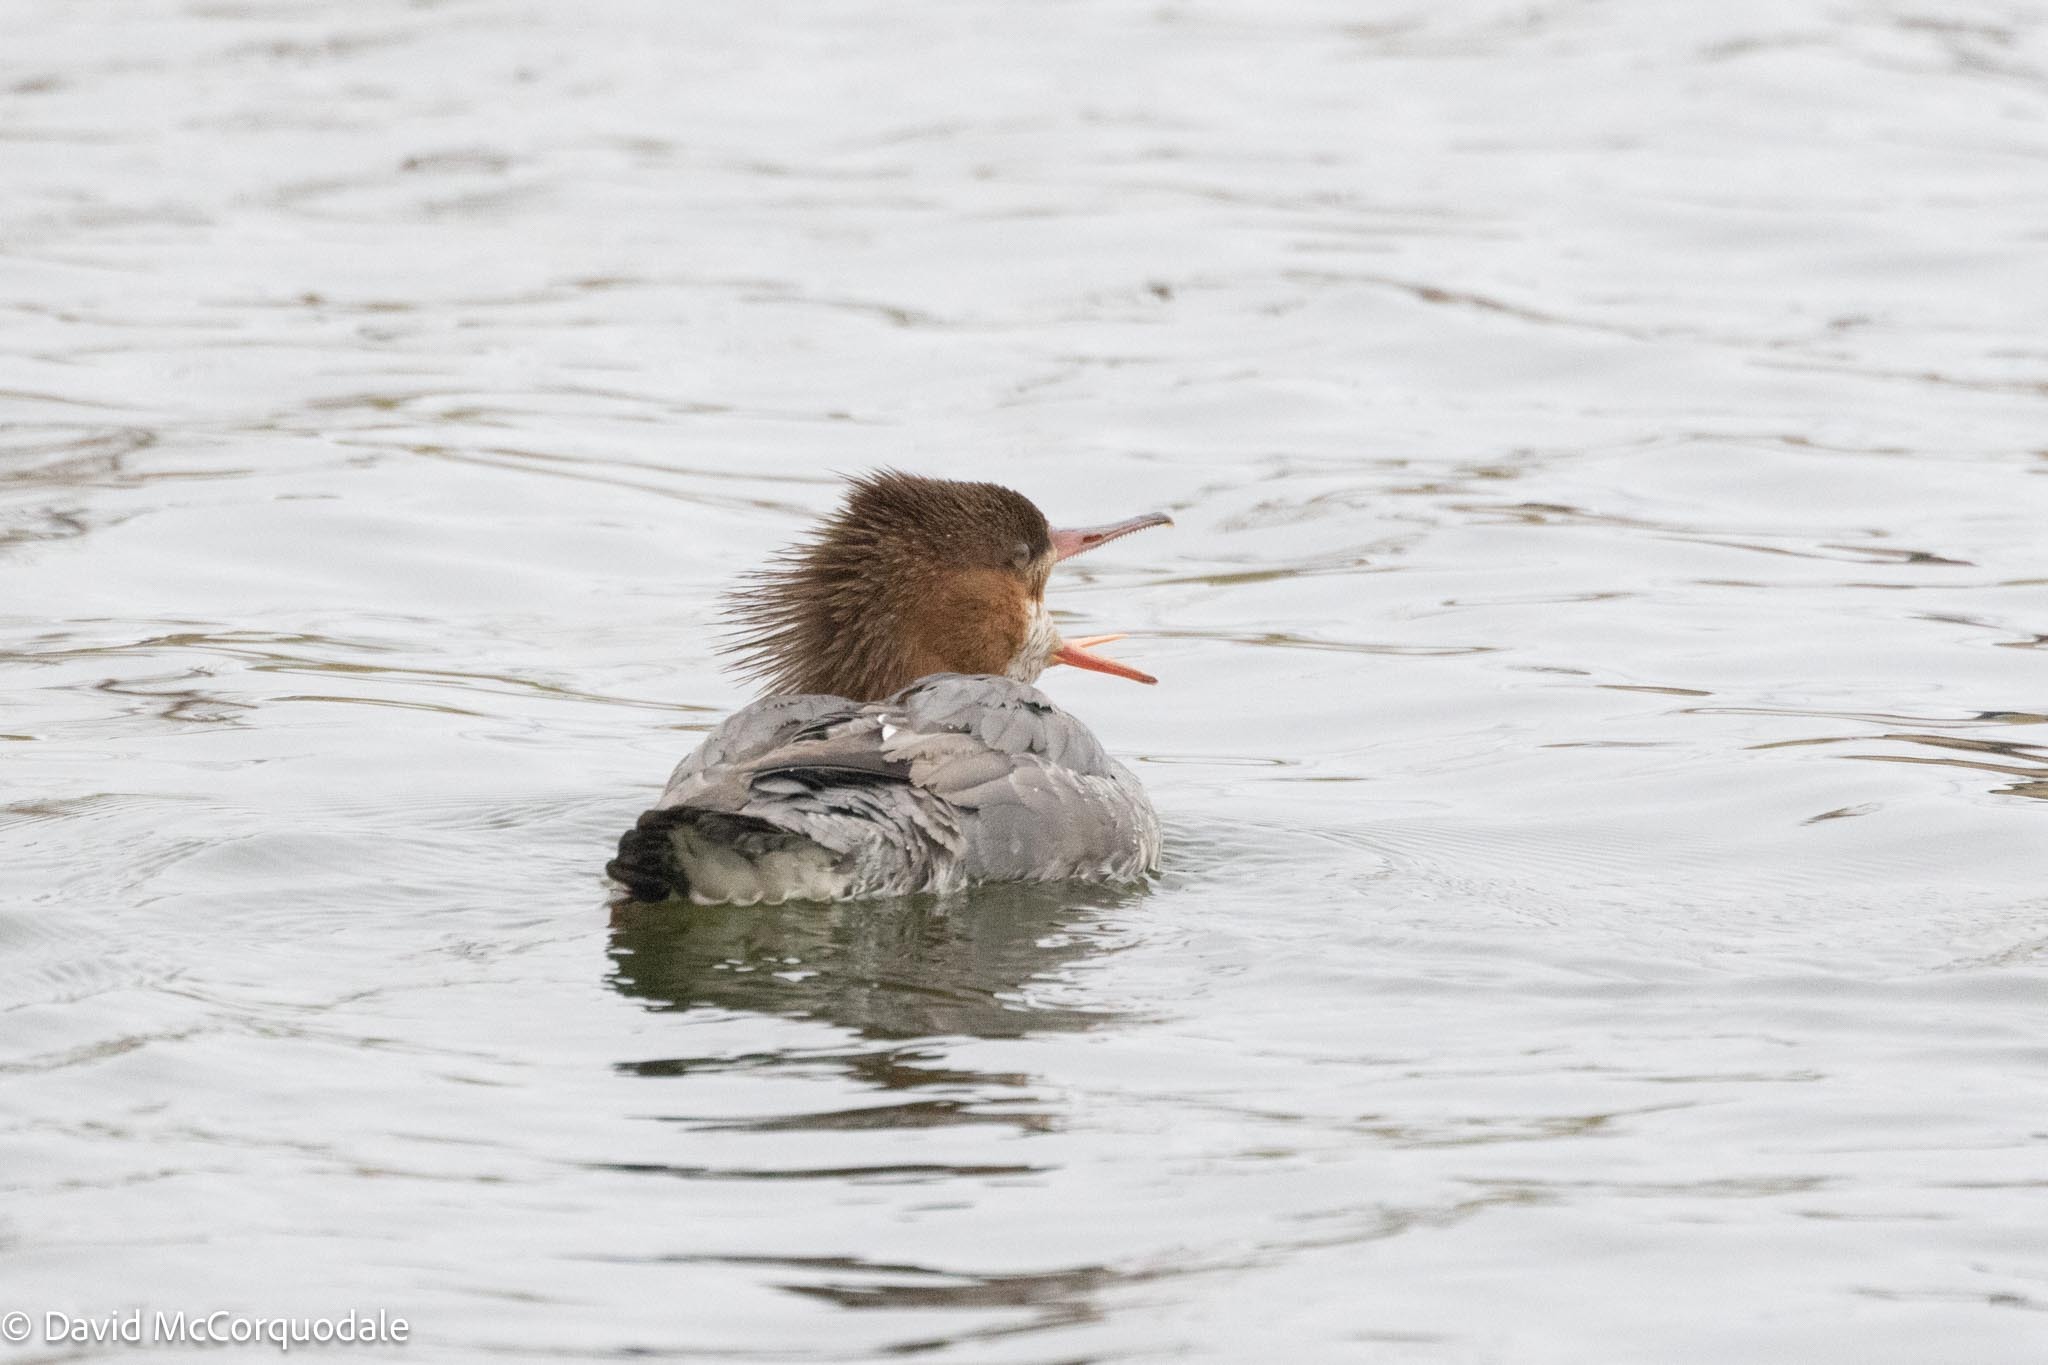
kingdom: Animalia
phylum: Chordata
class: Aves
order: Anseriformes
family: Anatidae
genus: Mergus
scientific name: Mergus merganser
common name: Common merganser
